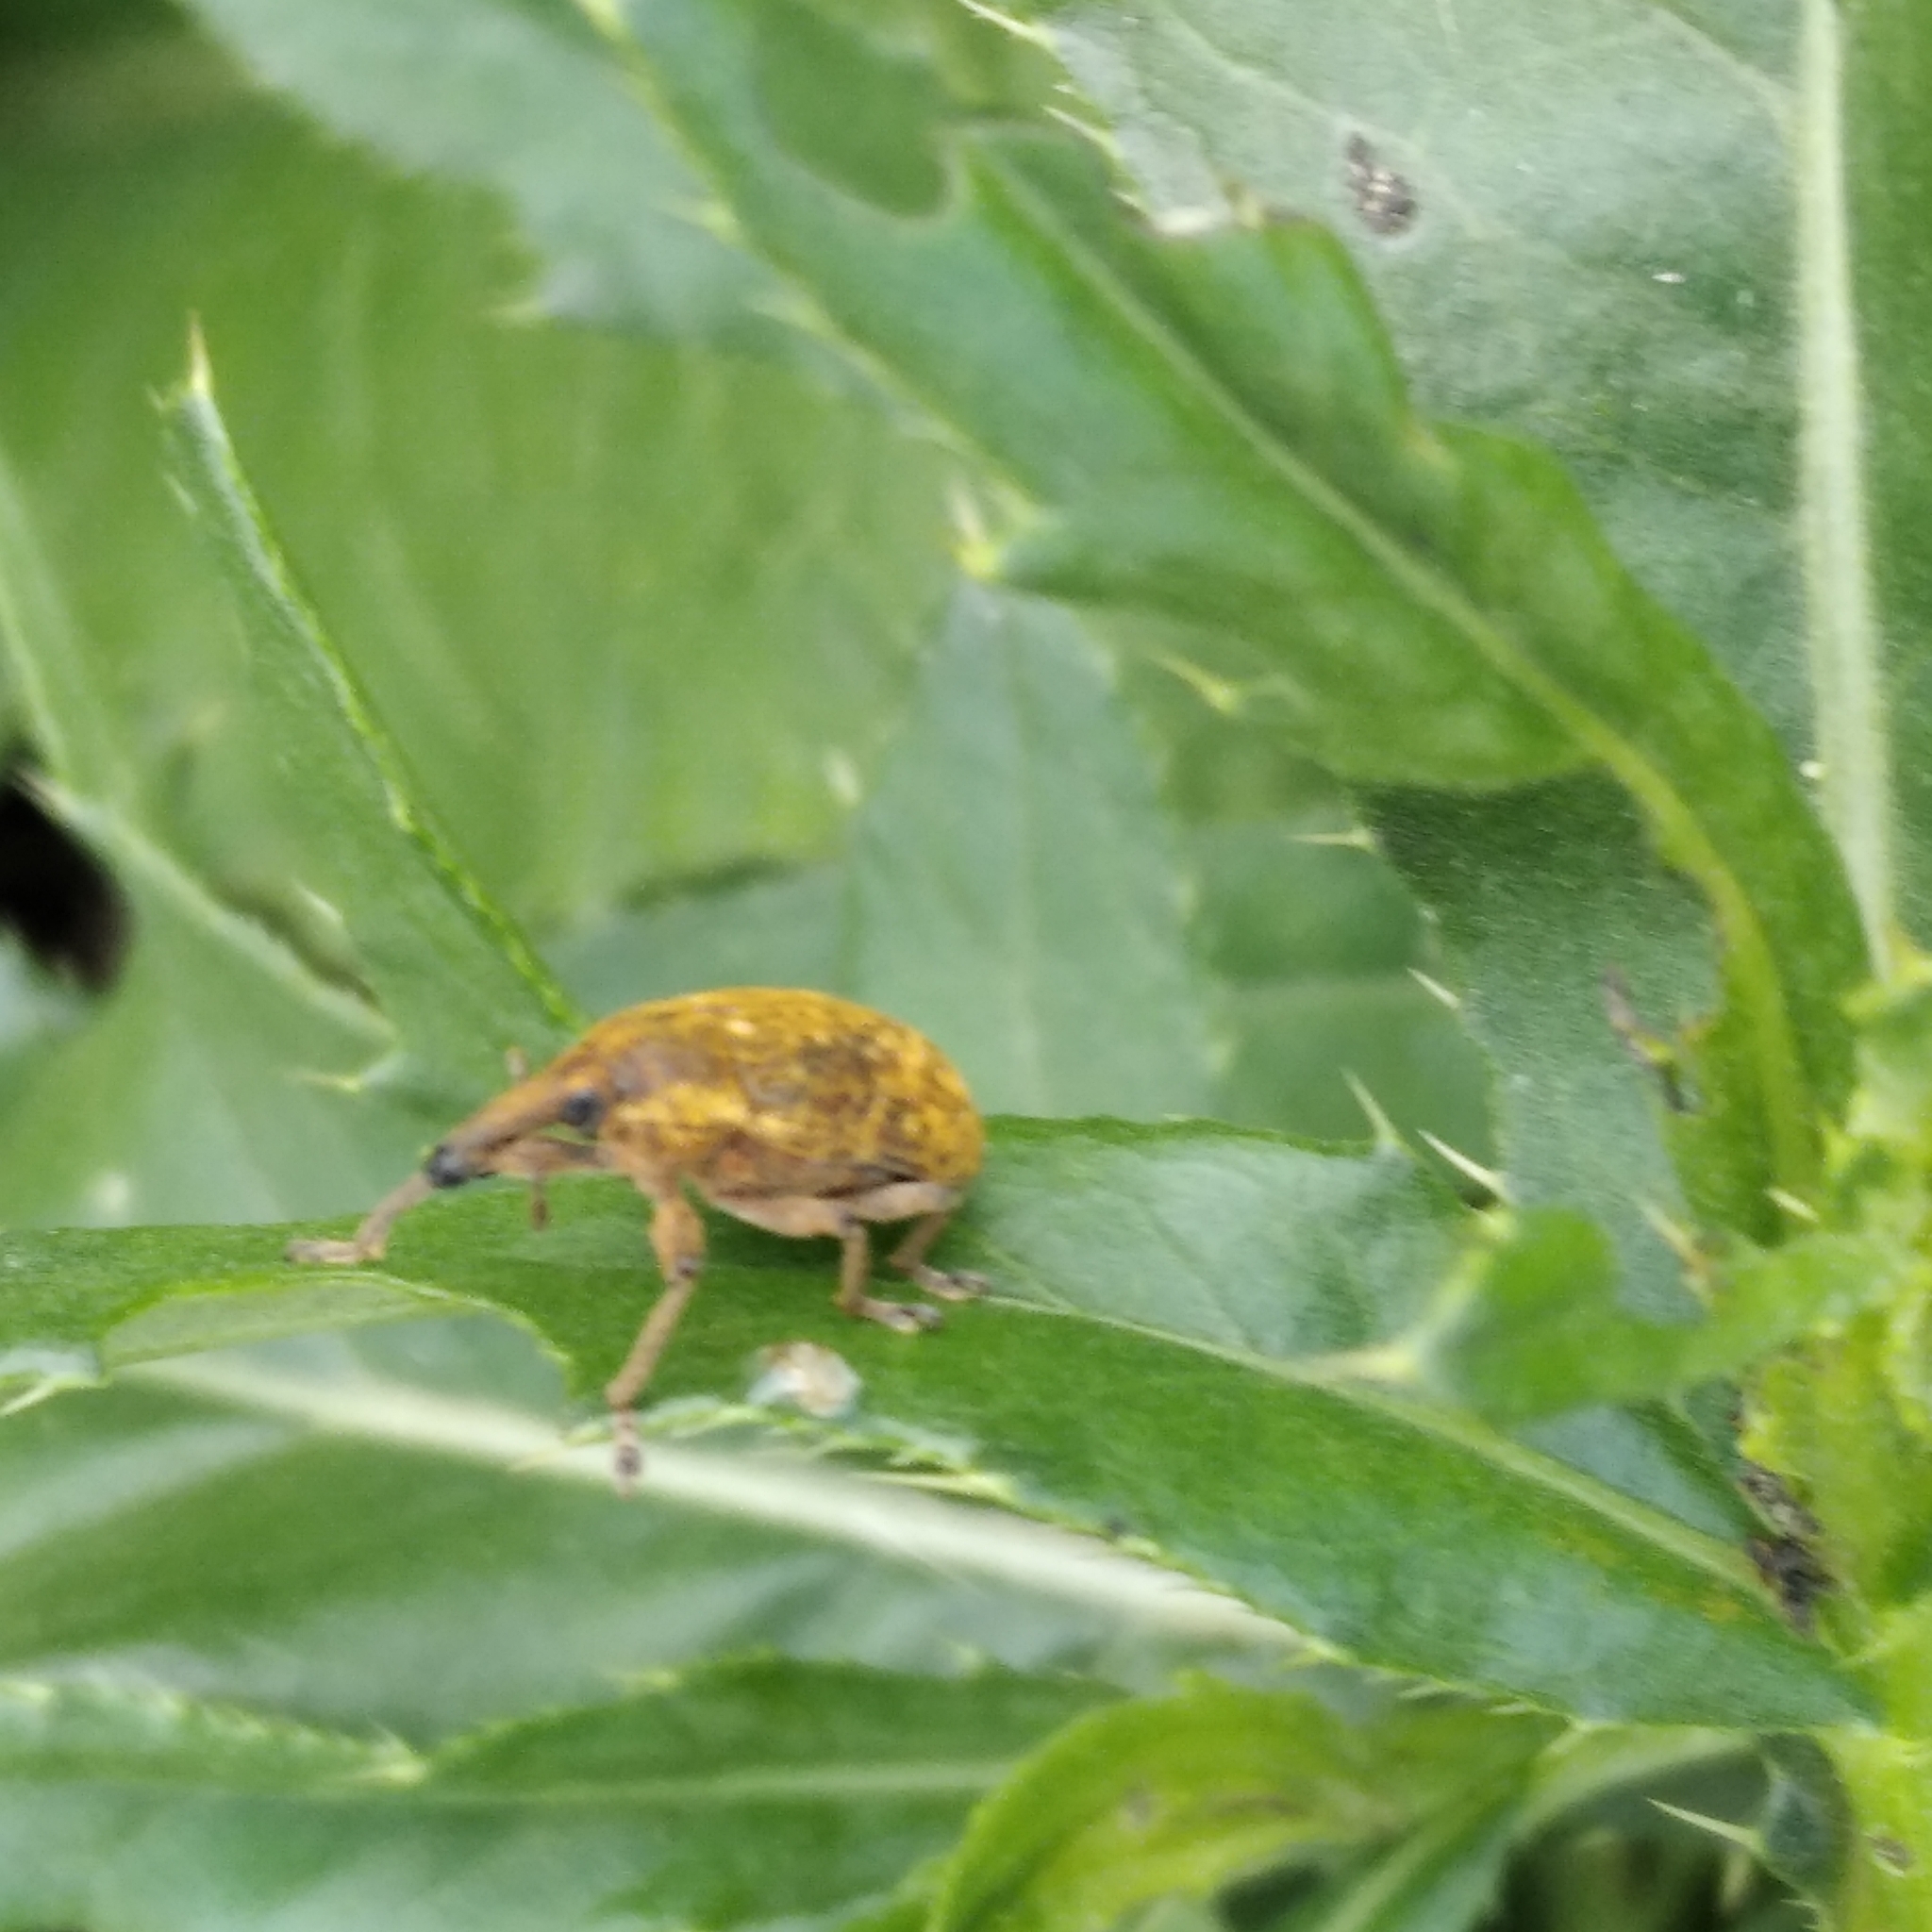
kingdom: Animalia
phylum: Arthropoda
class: Insecta
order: Coleoptera
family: Curculionidae
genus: Larinus
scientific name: Larinus sturnus
